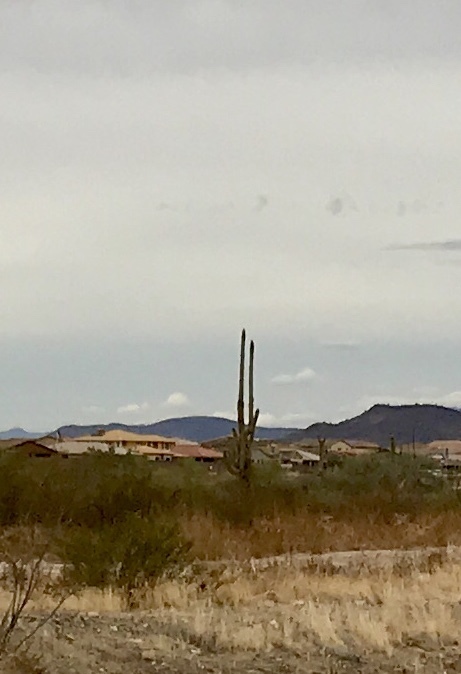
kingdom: Plantae
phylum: Tracheophyta
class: Magnoliopsida
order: Caryophyllales
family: Cactaceae
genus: Carnegiea
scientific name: Carnegiea gigantea
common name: Saguaro
